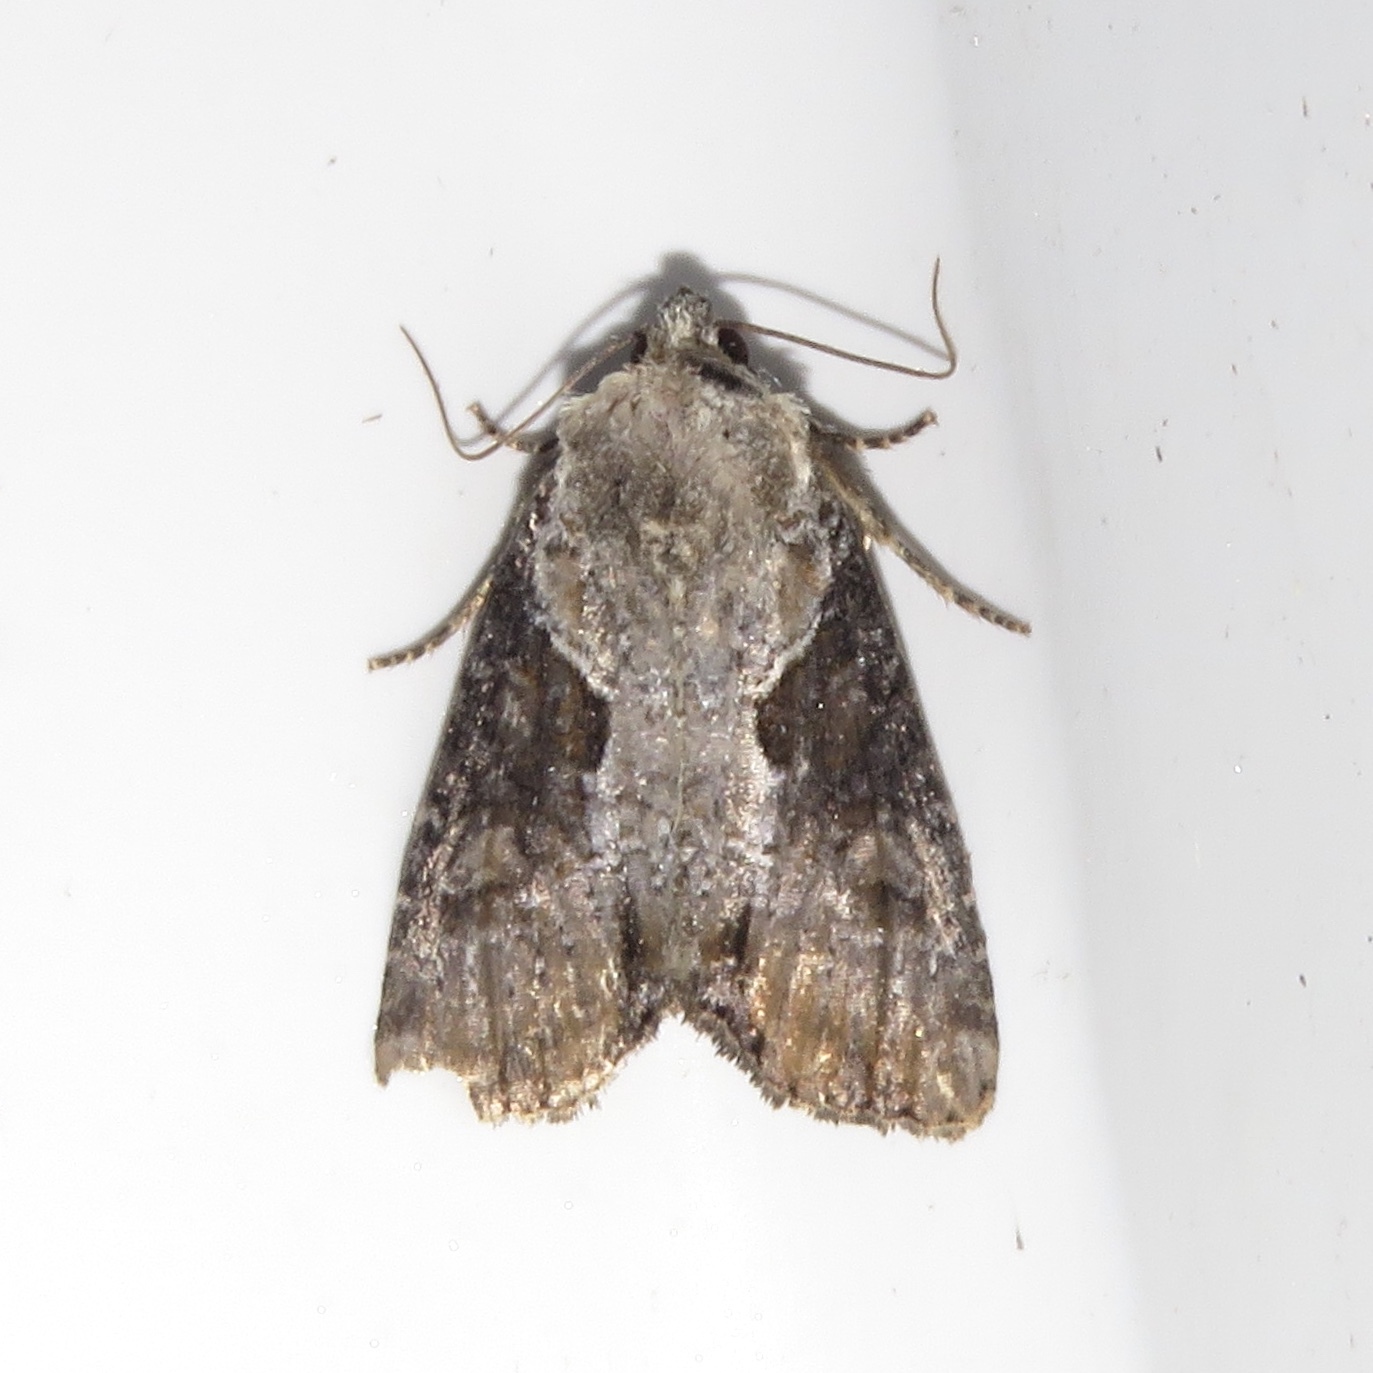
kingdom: Animalia
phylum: Arthropoda
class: Insecta
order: Lepidoptera
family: Noctuidae
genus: Lateroligia
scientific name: Lateroligia ophiogramma
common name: Double lobed
